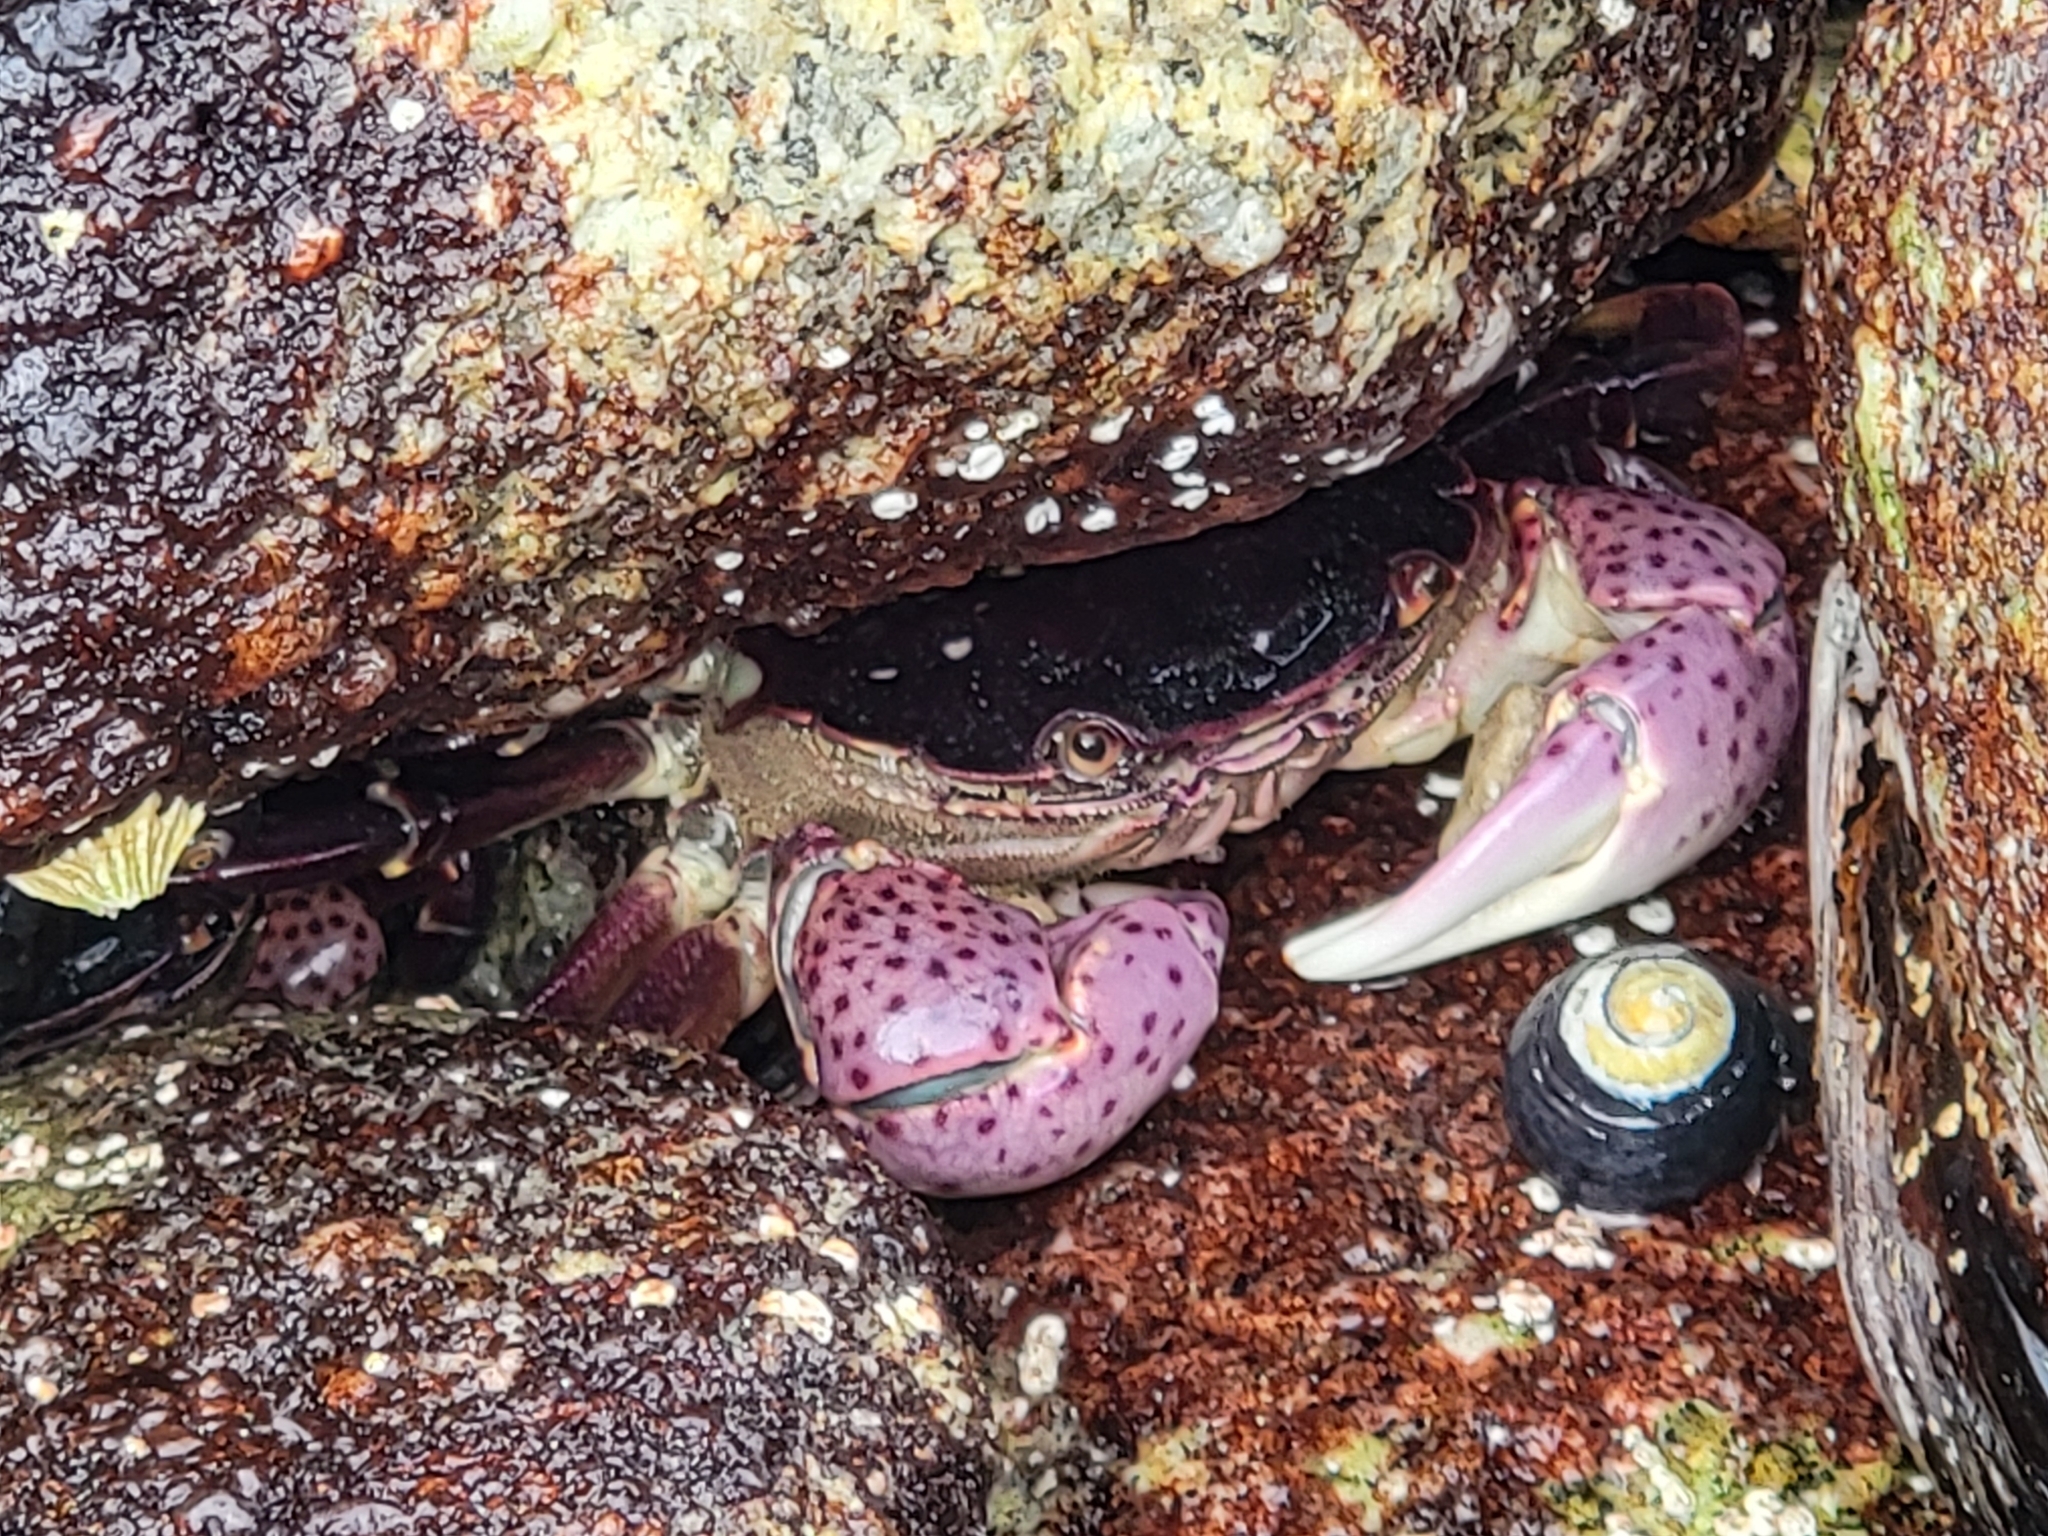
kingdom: Animalia
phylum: Arthropoda
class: Malacostraca
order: Decapoda
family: Varunidae
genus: Hemigrapsus
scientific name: Hemigrapsus nudus
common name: Purple shore crab
